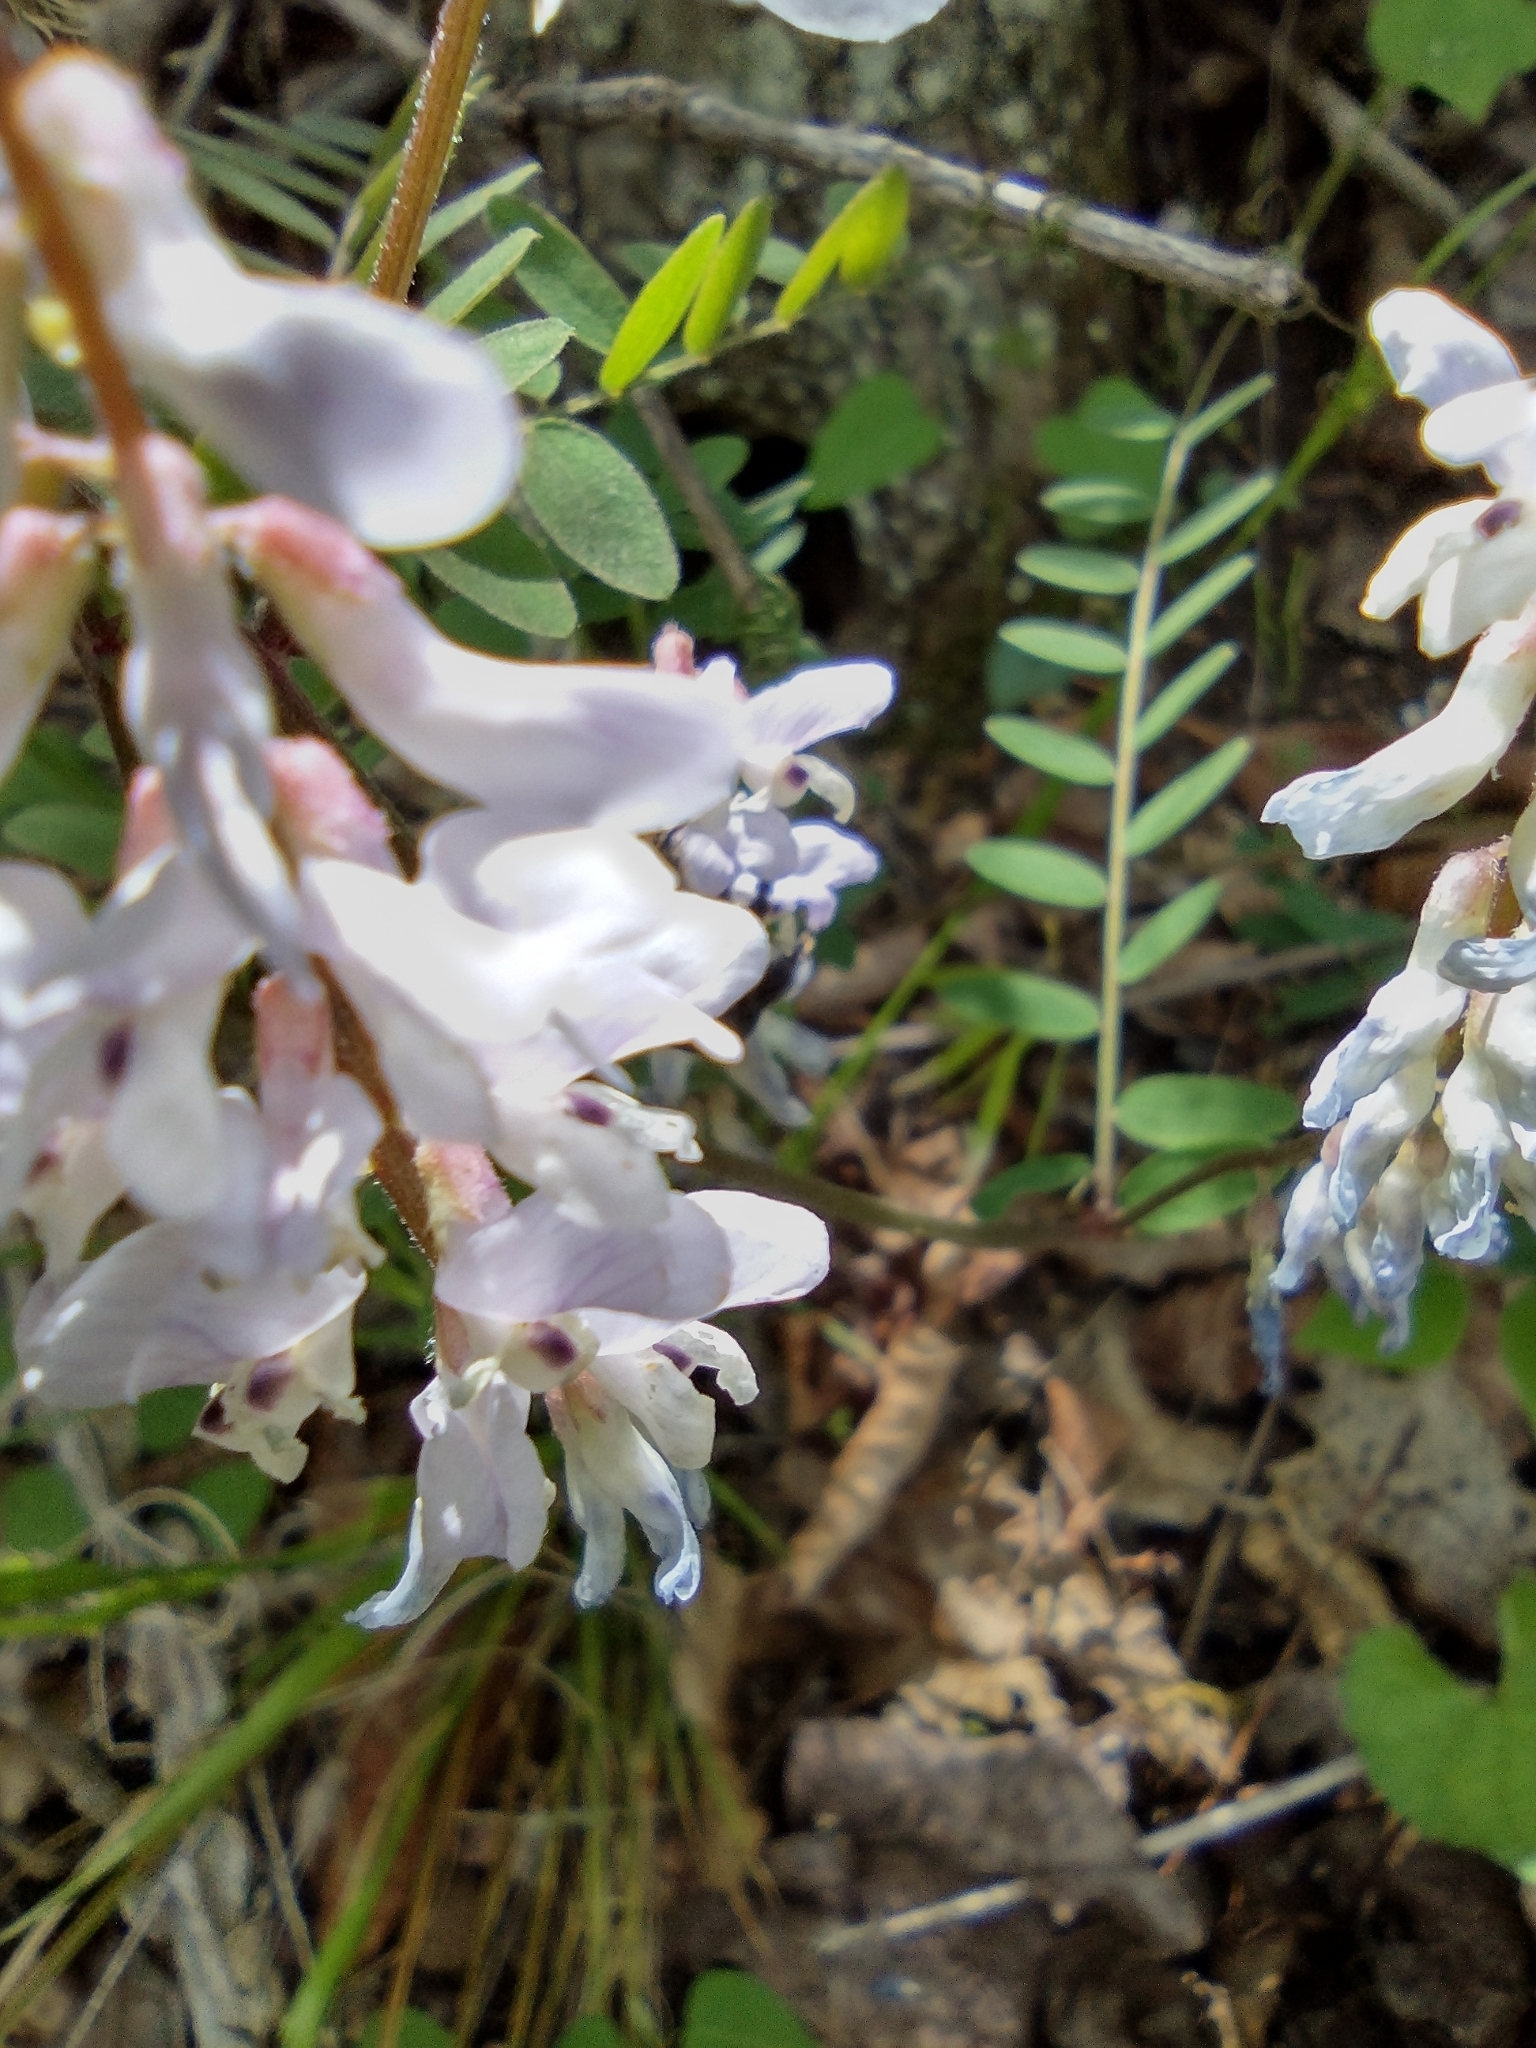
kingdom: Plantae
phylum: Tracheophyta
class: Magnoliopsida
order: Fabales
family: Fabaceae
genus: Vicia
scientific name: Vicia caroliniana
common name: Carolina vetch
